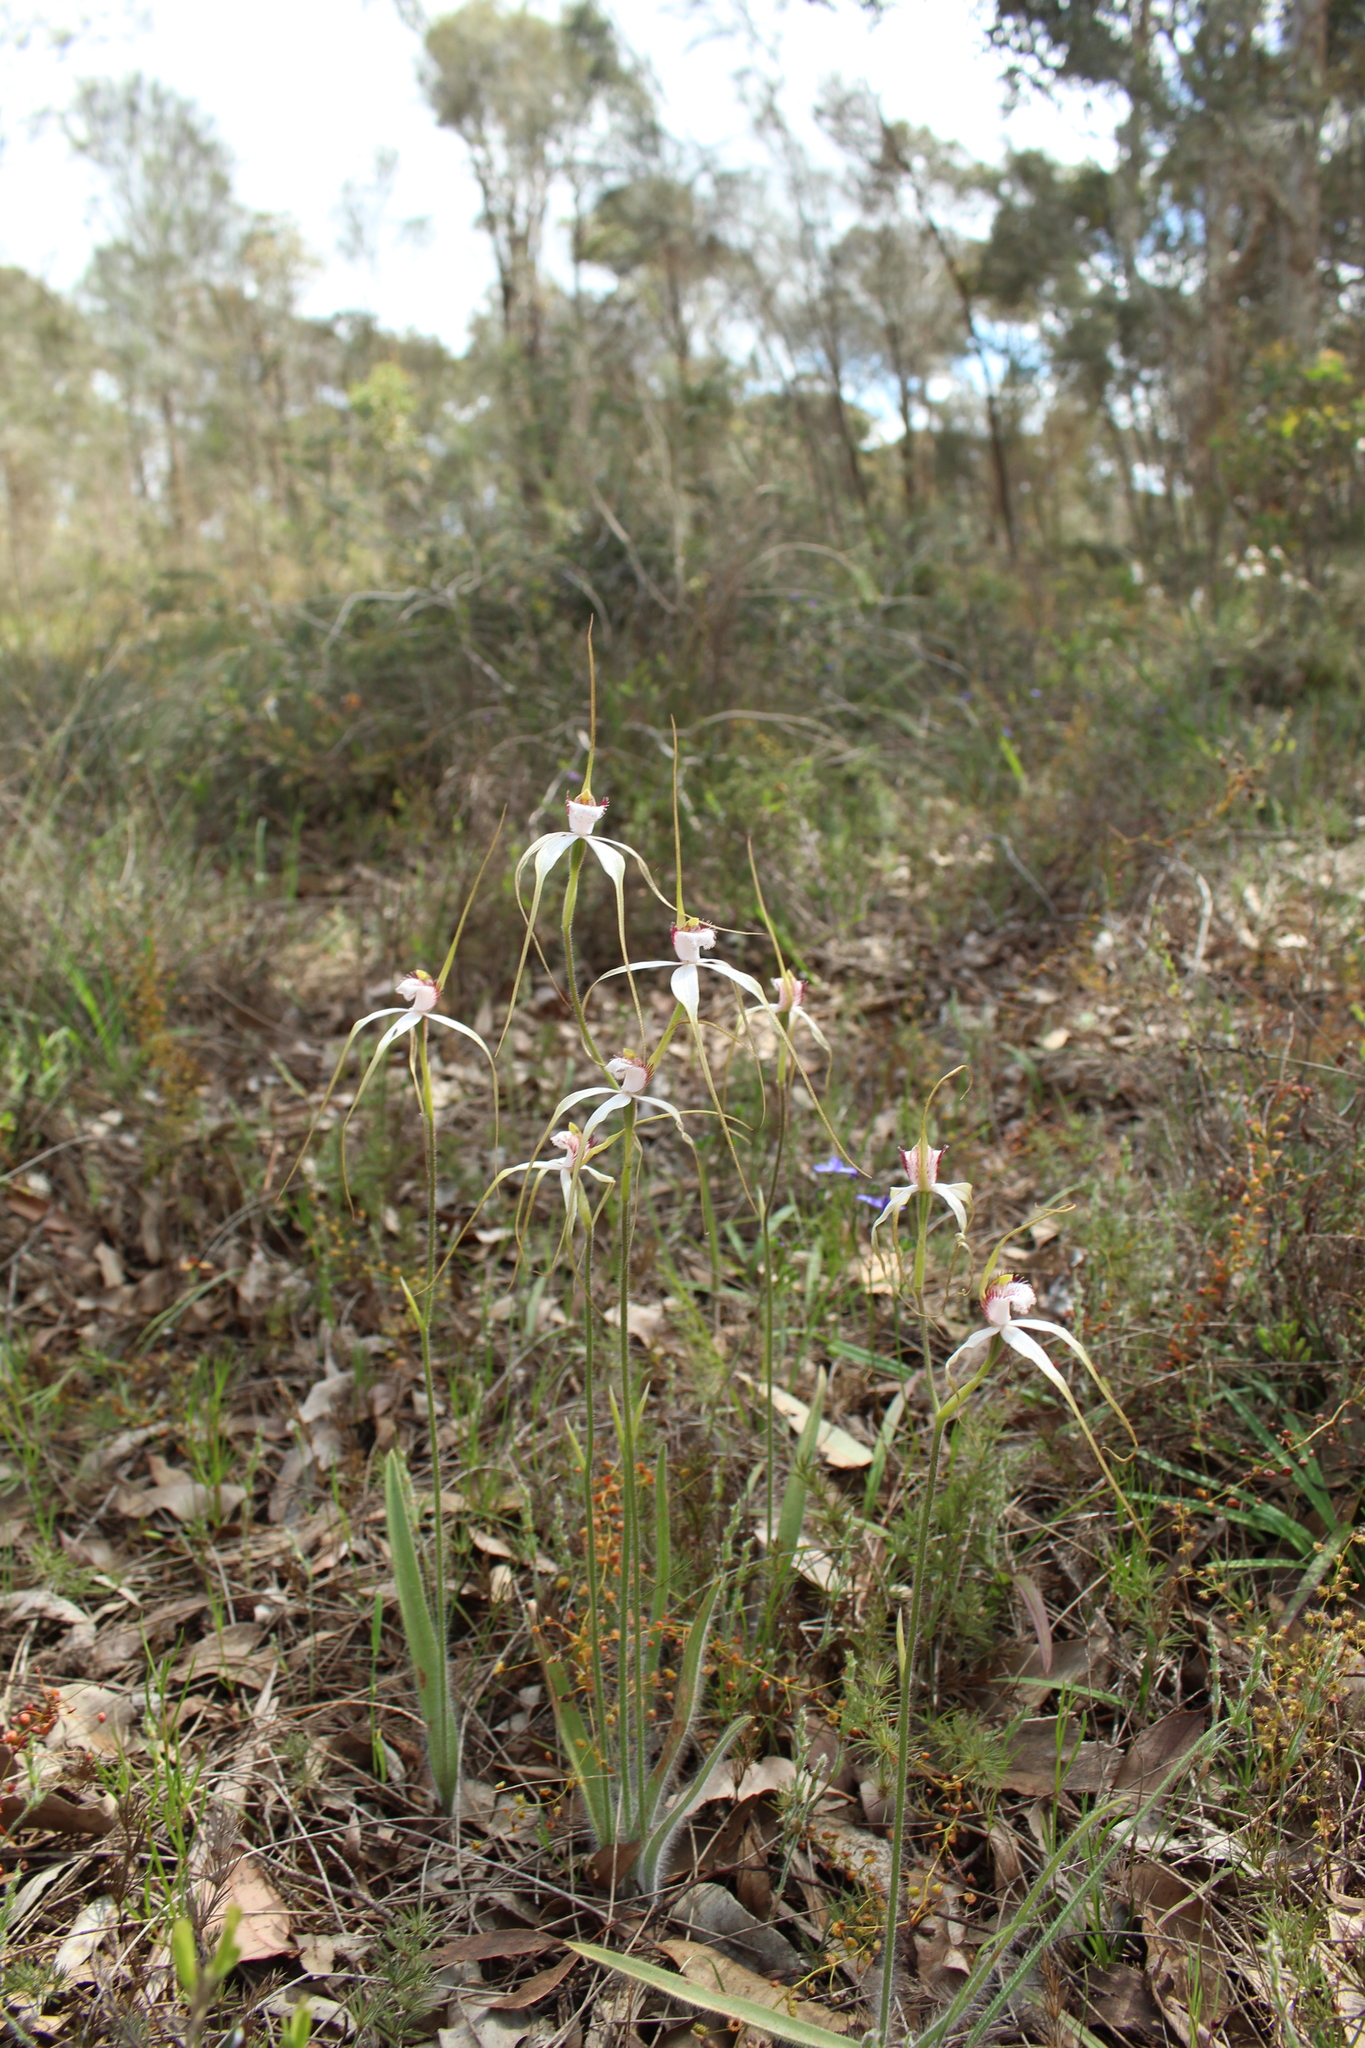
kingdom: Plantae
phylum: Tracheophyta
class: Liliopsida
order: Asparagales
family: Orchidaceae
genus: Caladenia
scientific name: Caladenia longicauda
